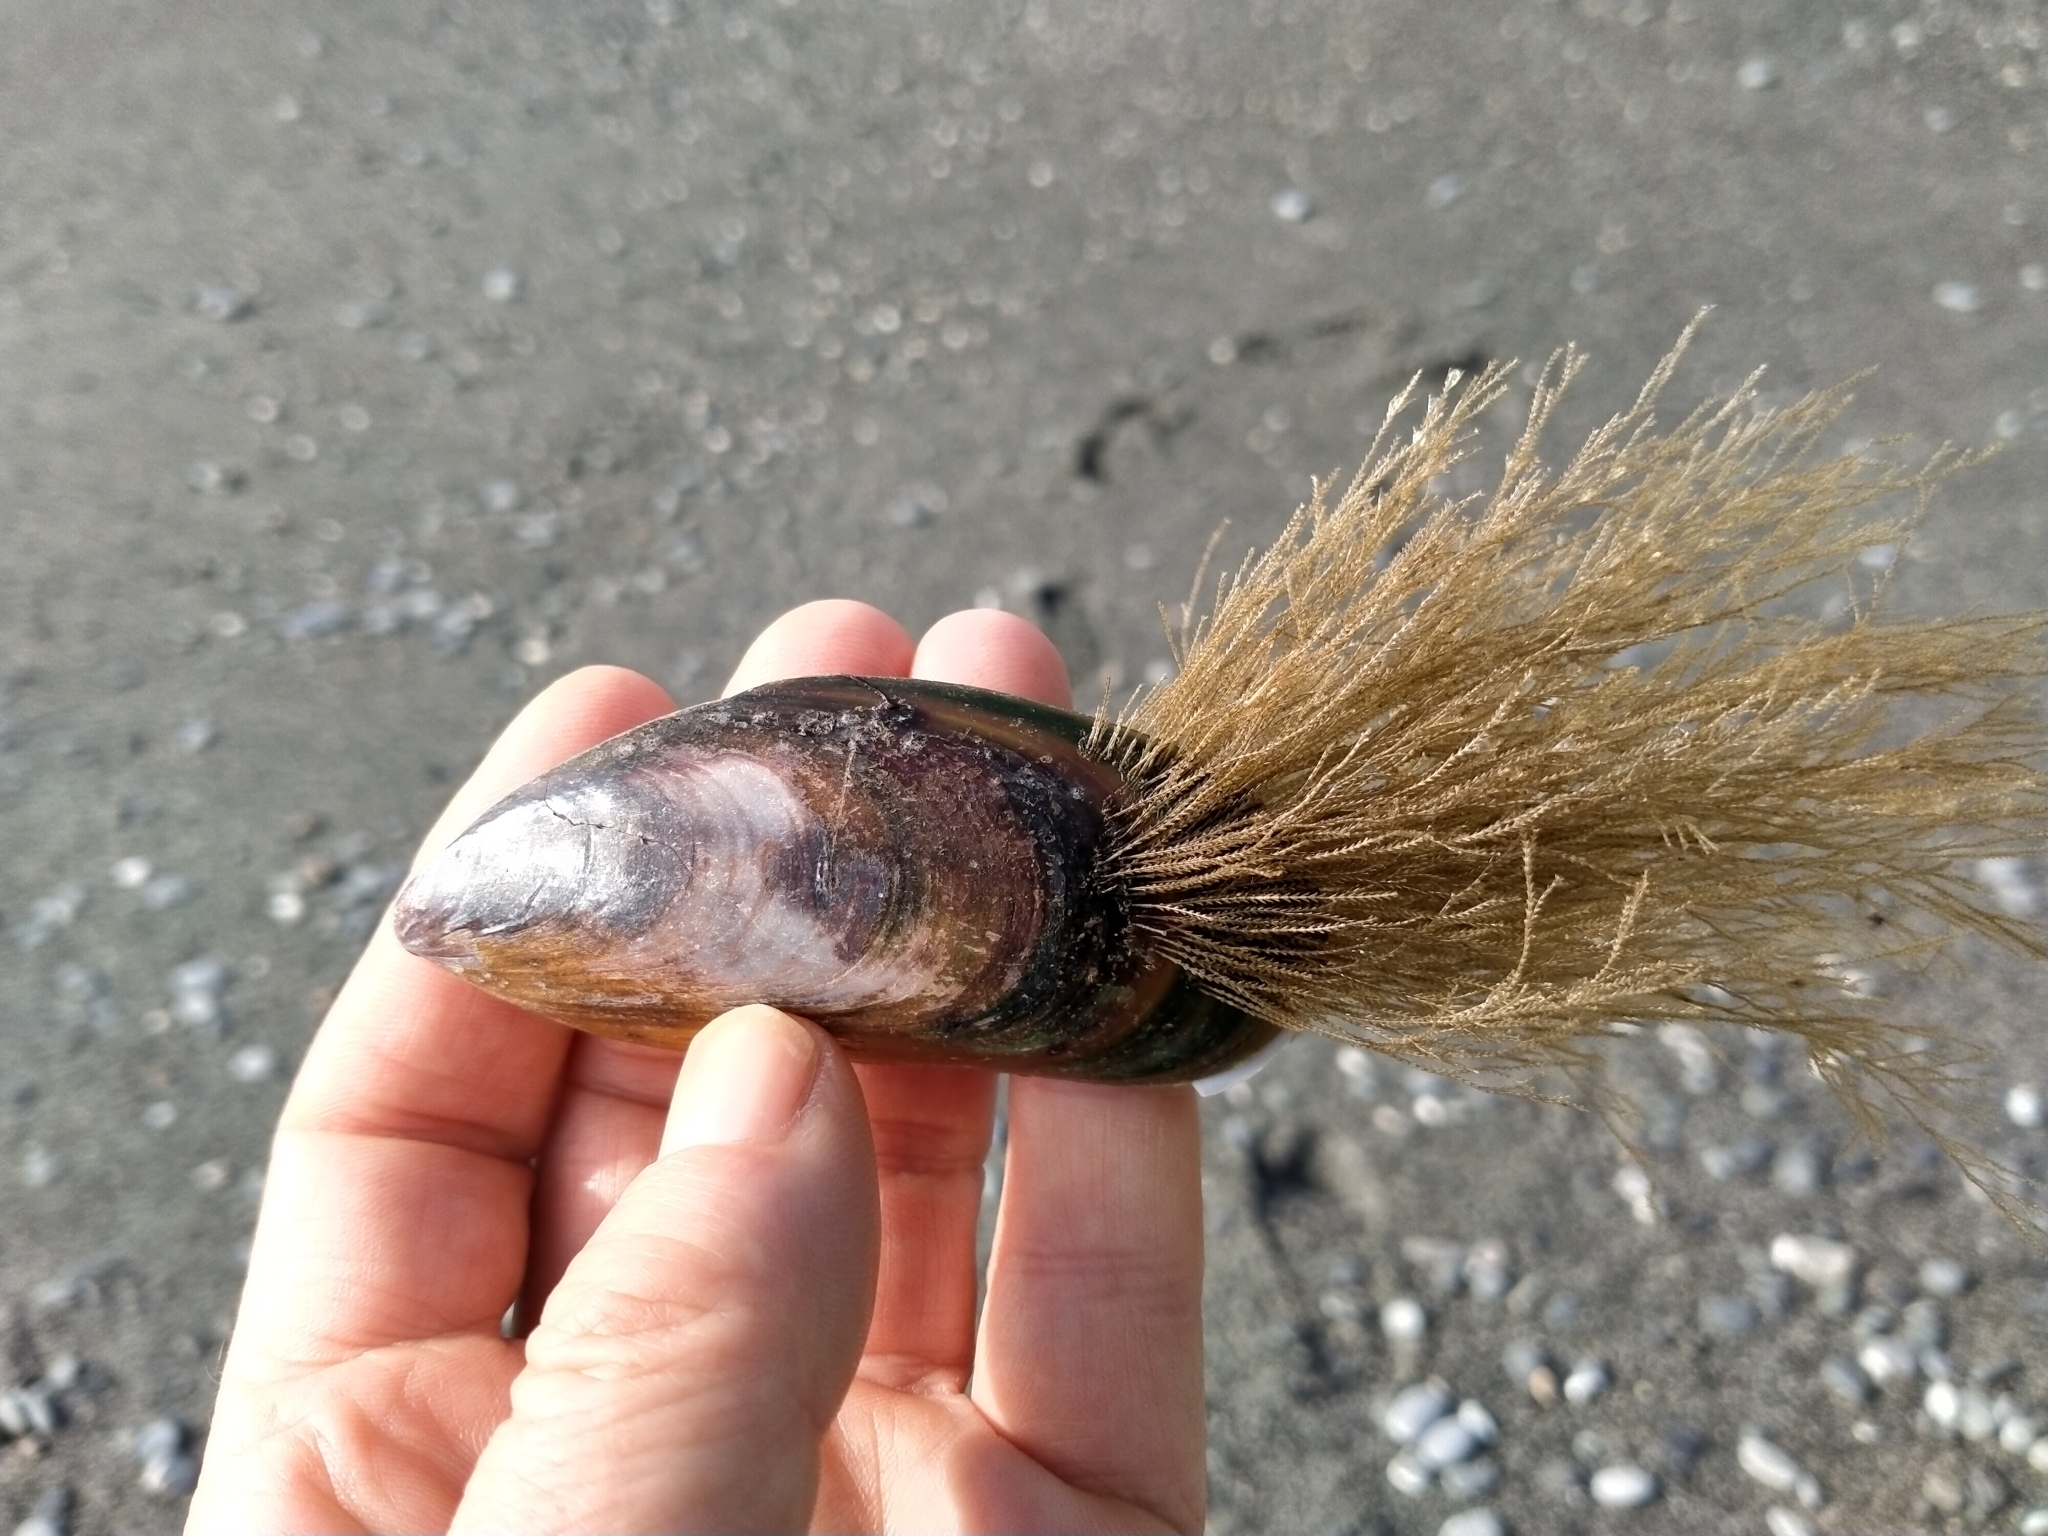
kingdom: Animalia
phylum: Mollusca
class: Bivalvia
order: Mytilida
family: Mytilidae
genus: Perna
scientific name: Perna canaliculus
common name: New zealand greenshelltm
